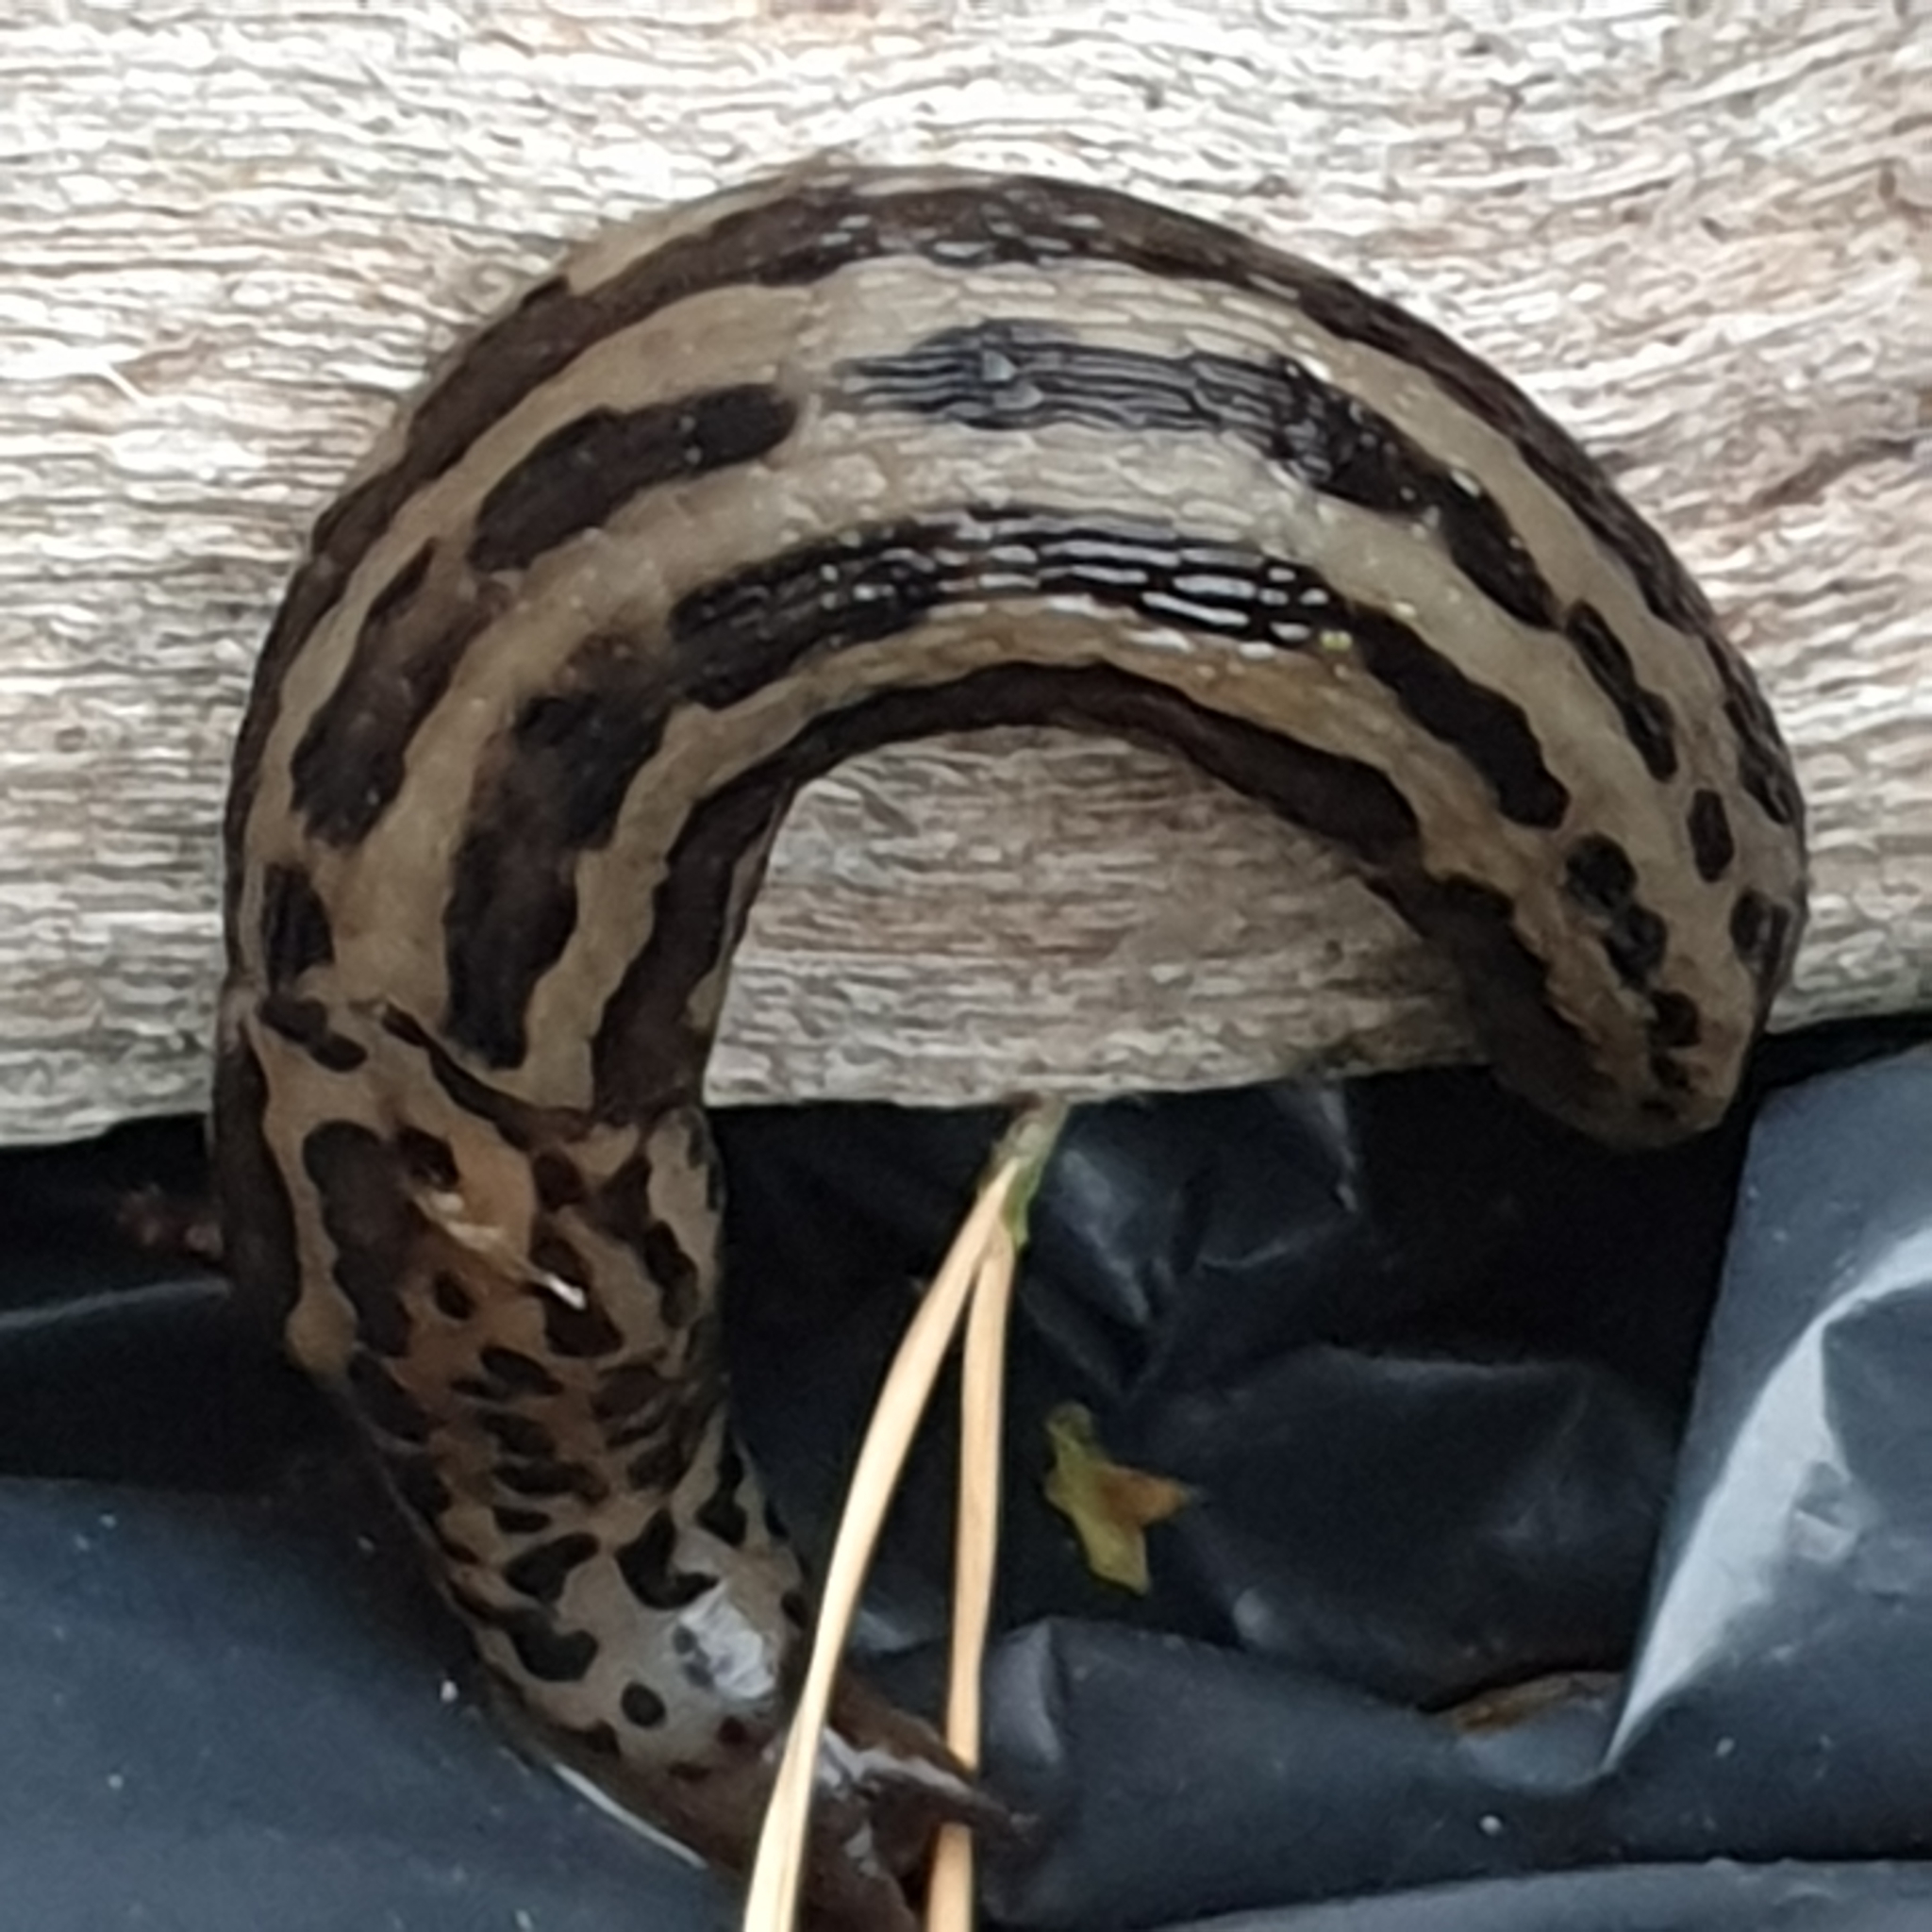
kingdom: Animalia
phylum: Mollusca
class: Gastropoda
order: Stylommatophora
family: Limacidae
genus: Limax
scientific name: Limax maximus
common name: Great grey slug
